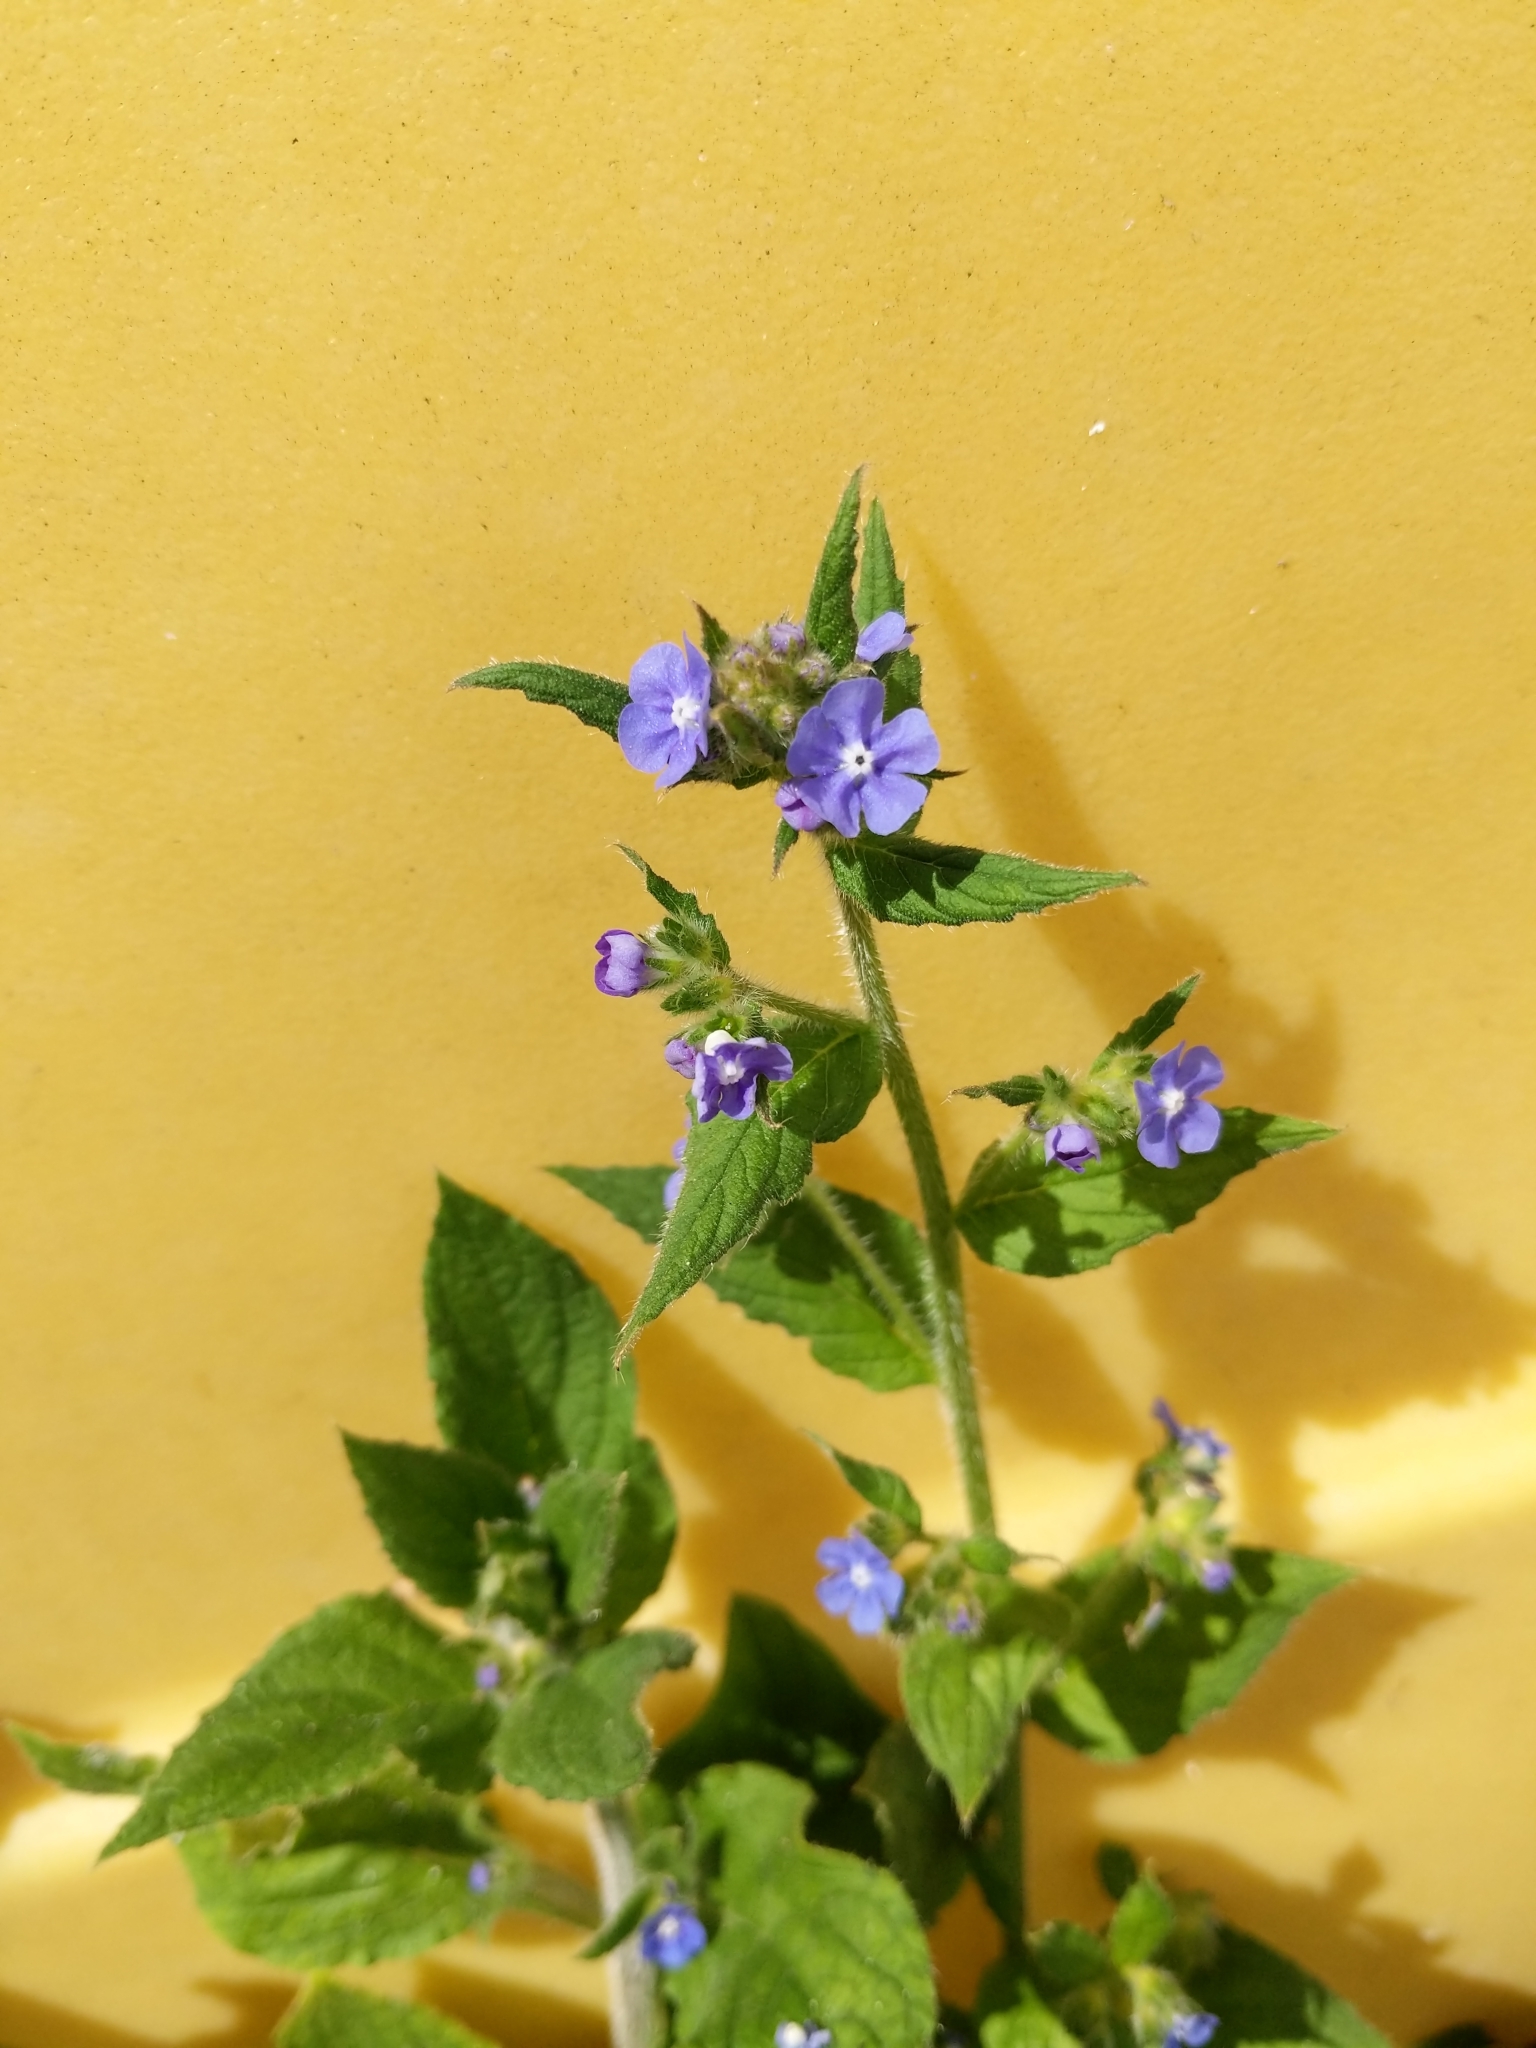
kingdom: Plantae
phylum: Tracheophyta
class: Magnoliopsida
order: Boraginales
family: Boraginaceae
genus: Pentaglottis
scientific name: Pentaglottis sempervirens
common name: Green alkanet
